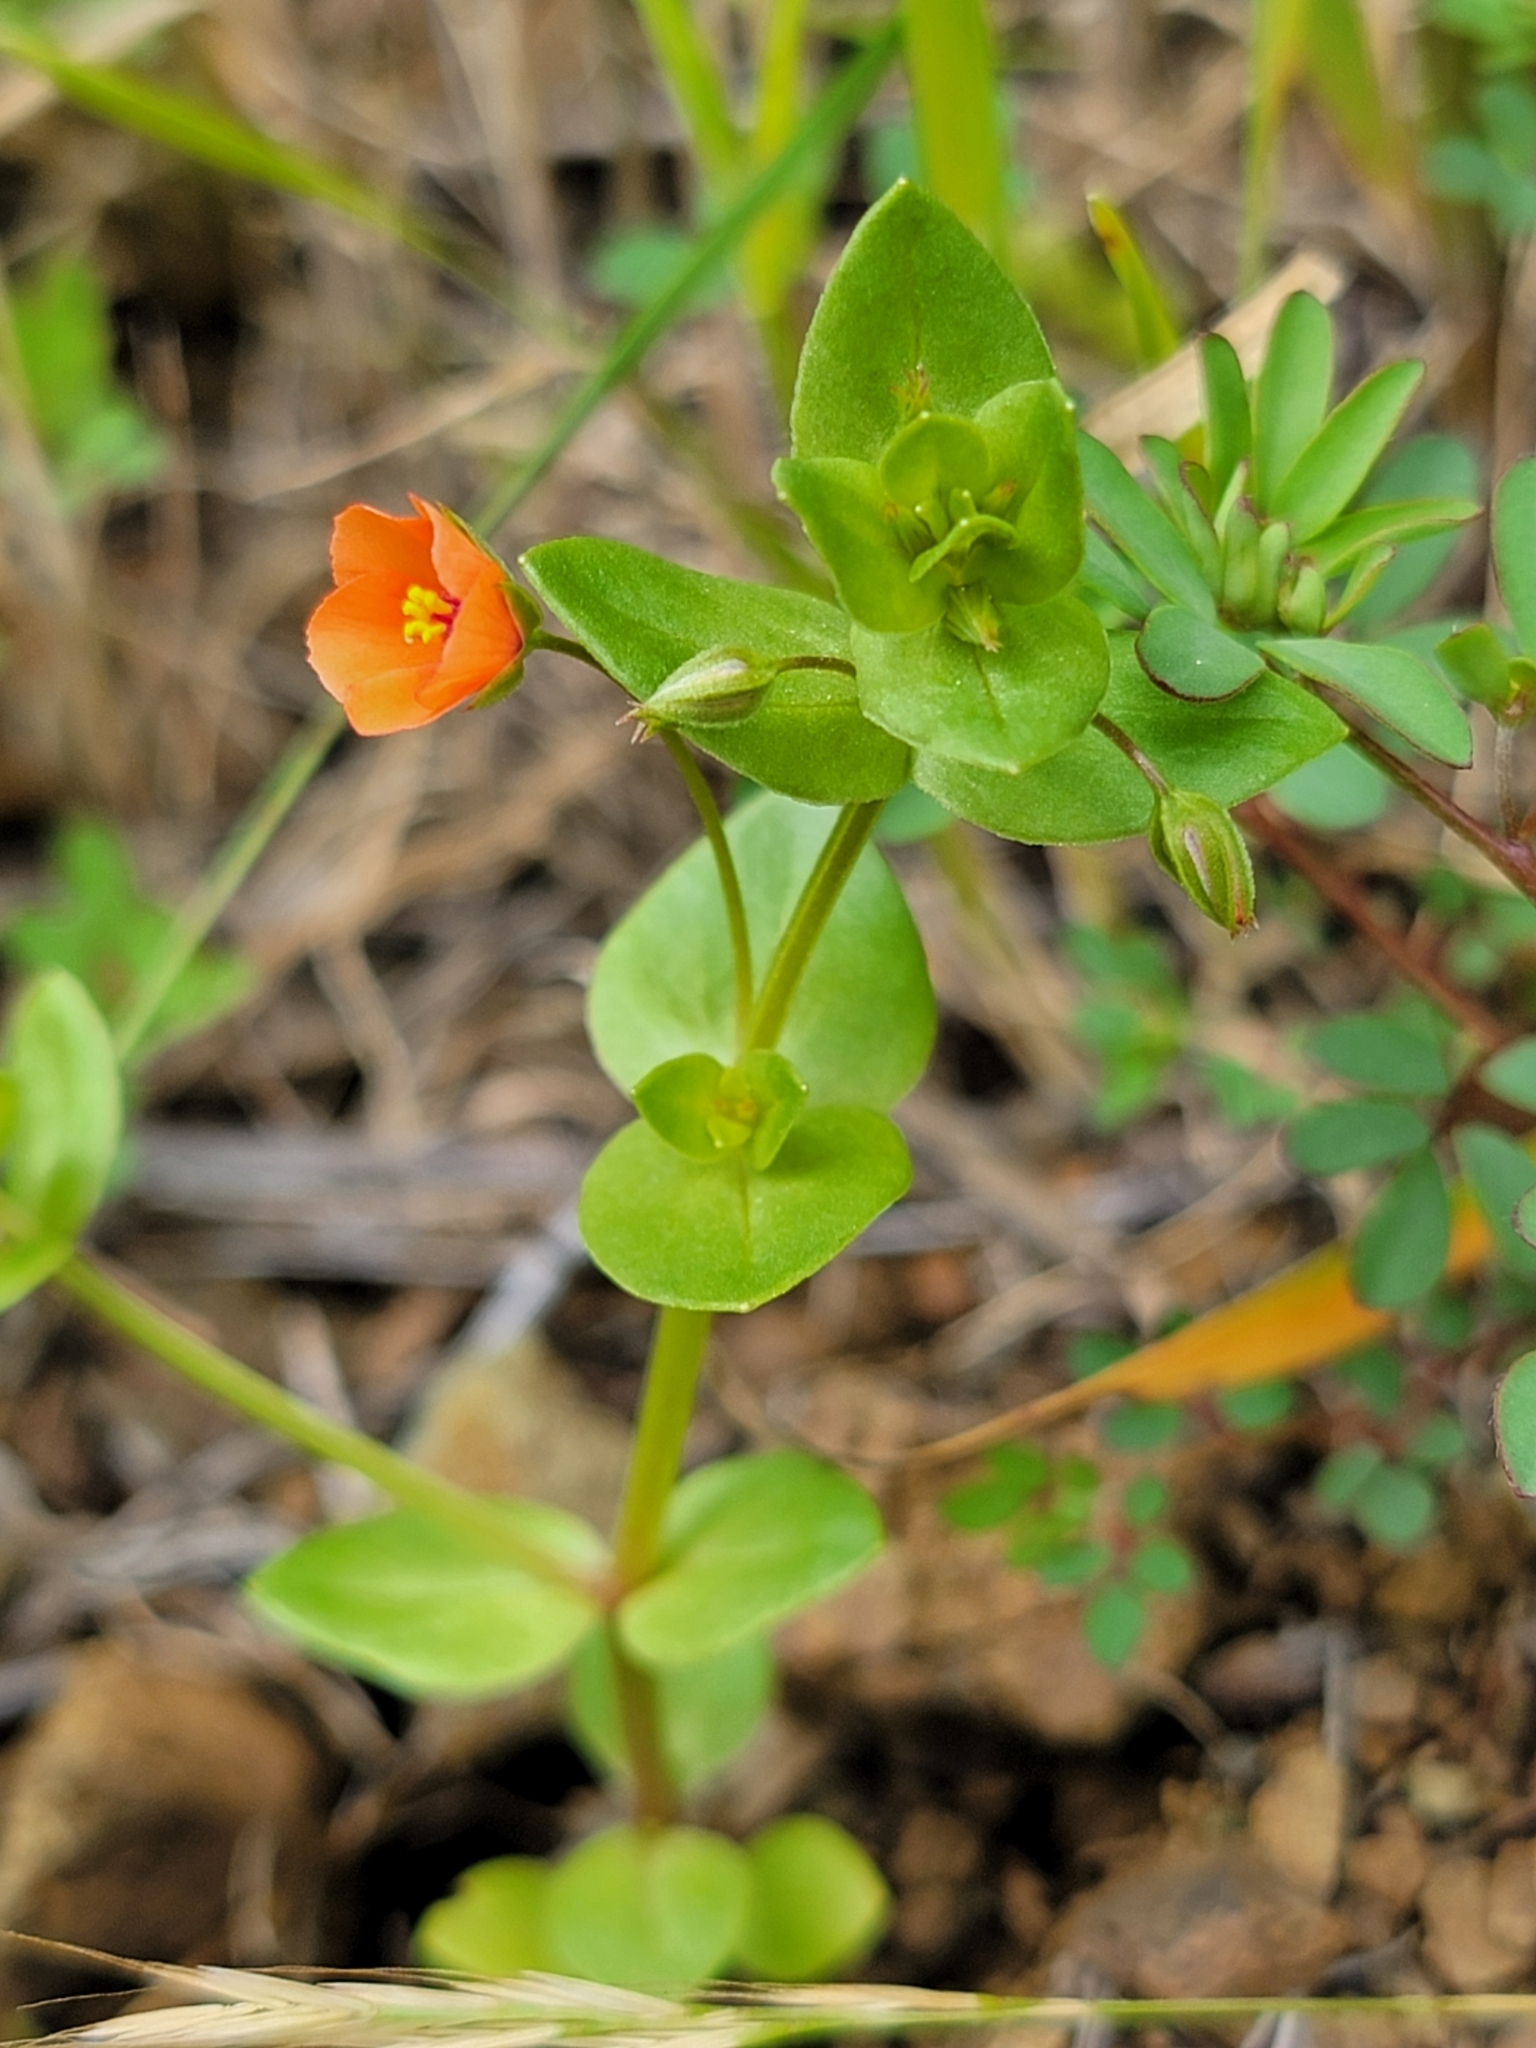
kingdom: Plantae
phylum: Tracheophyta
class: Magnoliopsida
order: Ericales
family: Primulaceae
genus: Lysimachia
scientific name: Lysimachia arvensis
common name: Scarlet pimpernel
